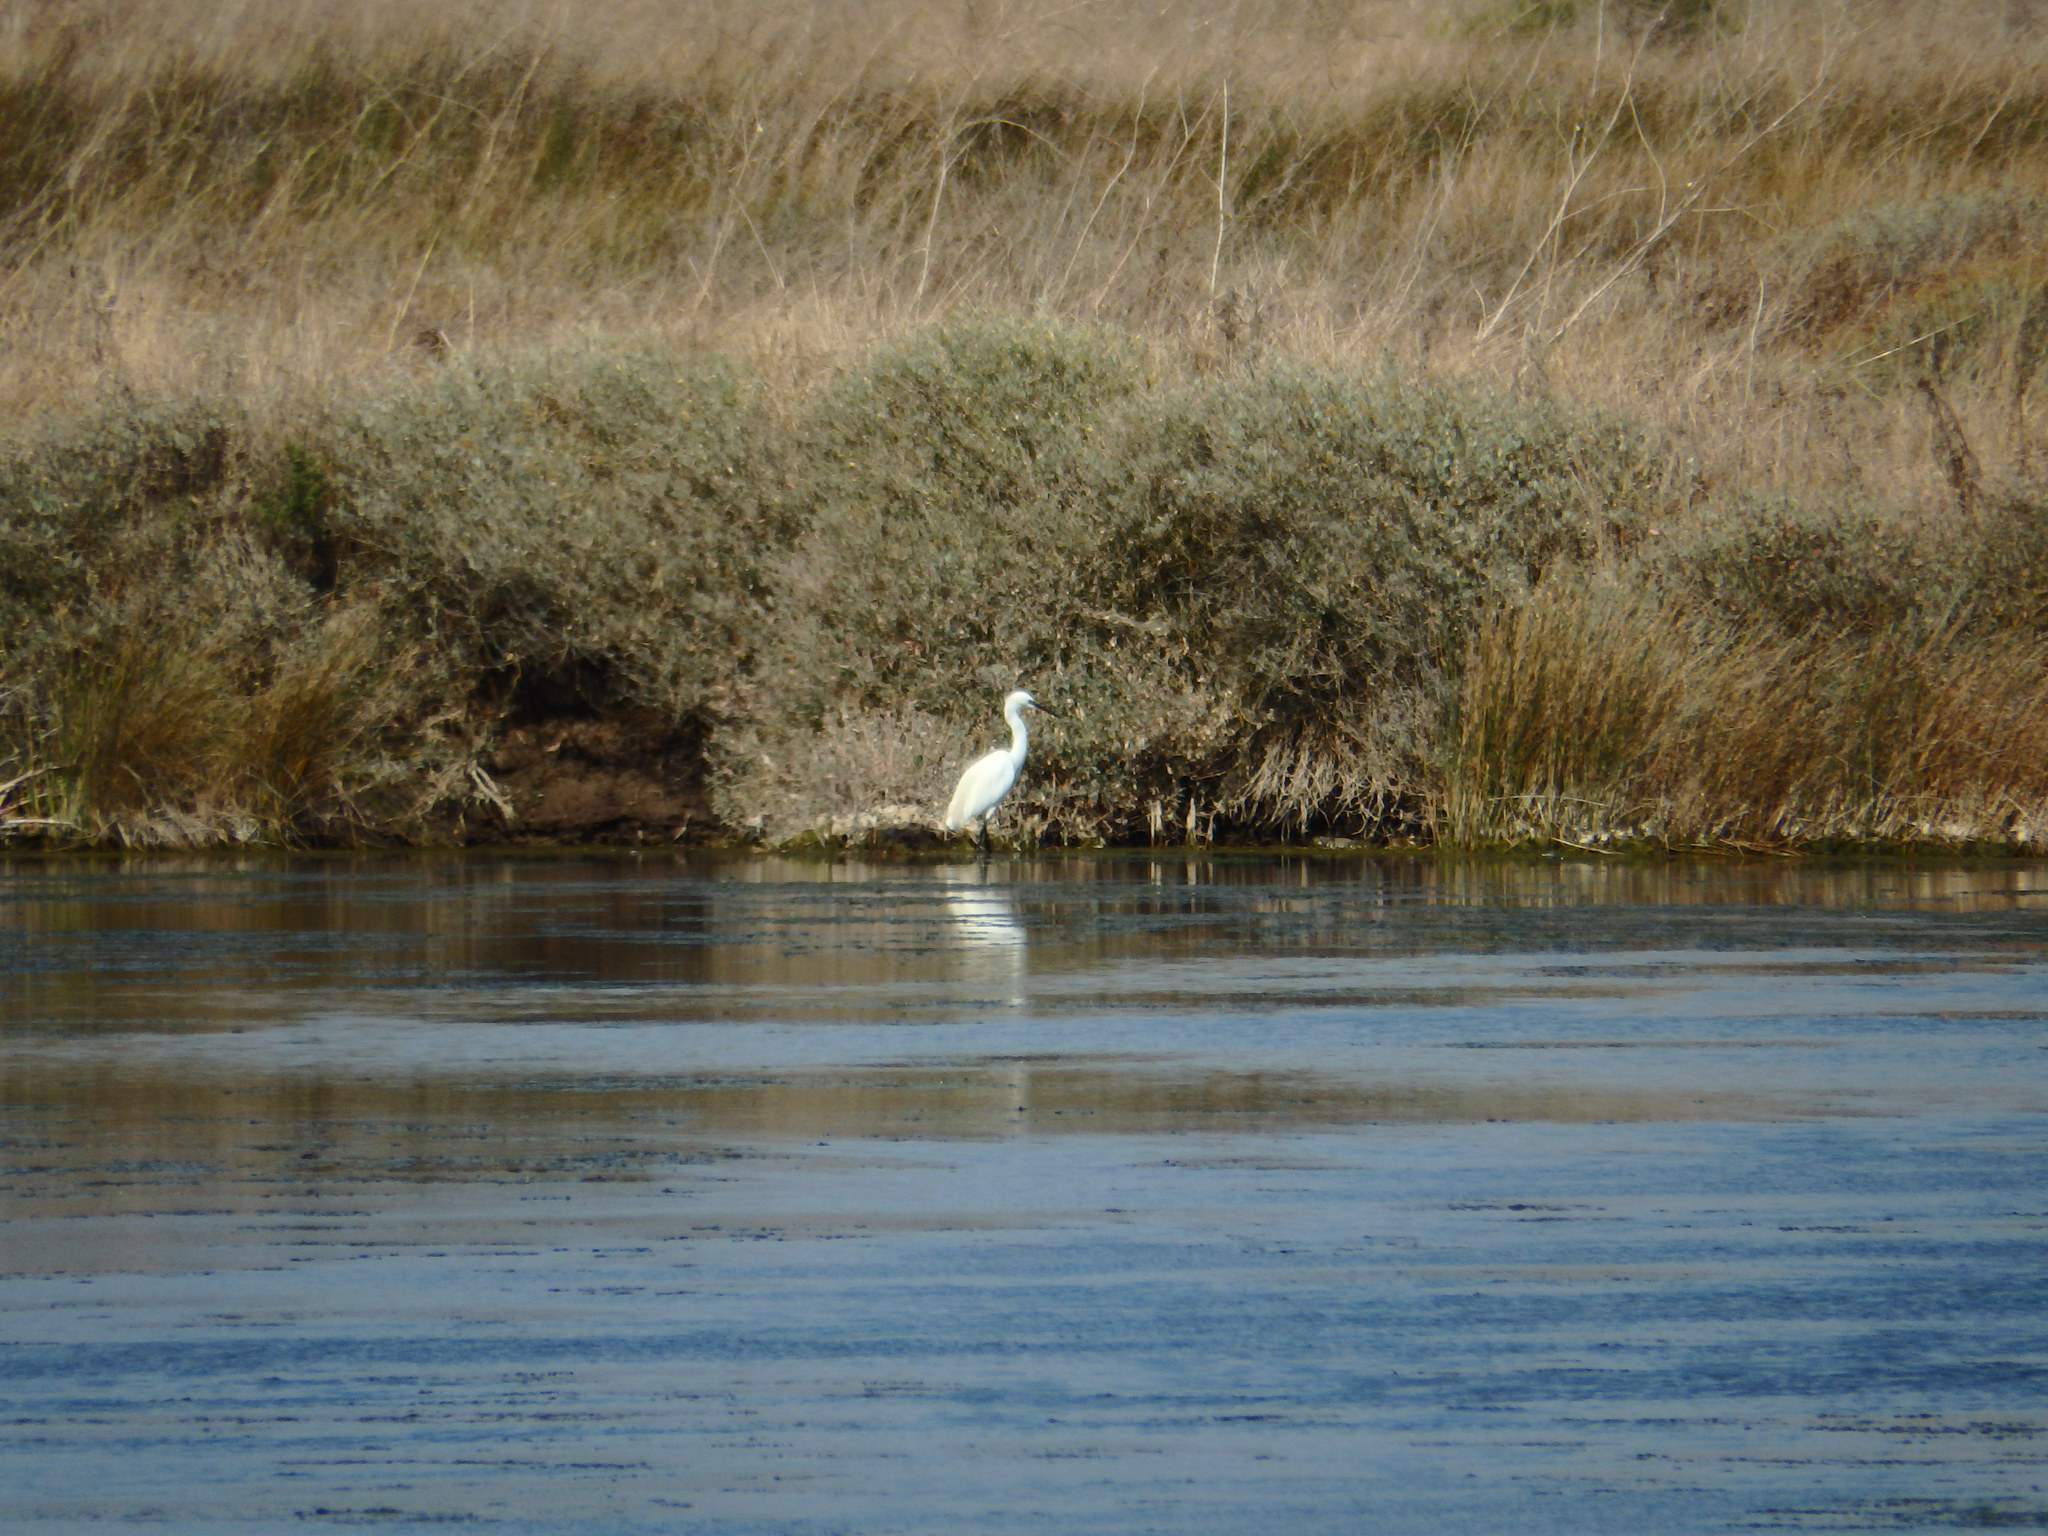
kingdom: Animalia
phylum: Chordata
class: Aves
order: Pelecaniformes
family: Ardeidae
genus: Egretta
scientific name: Egretta garzetta
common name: Little egret
